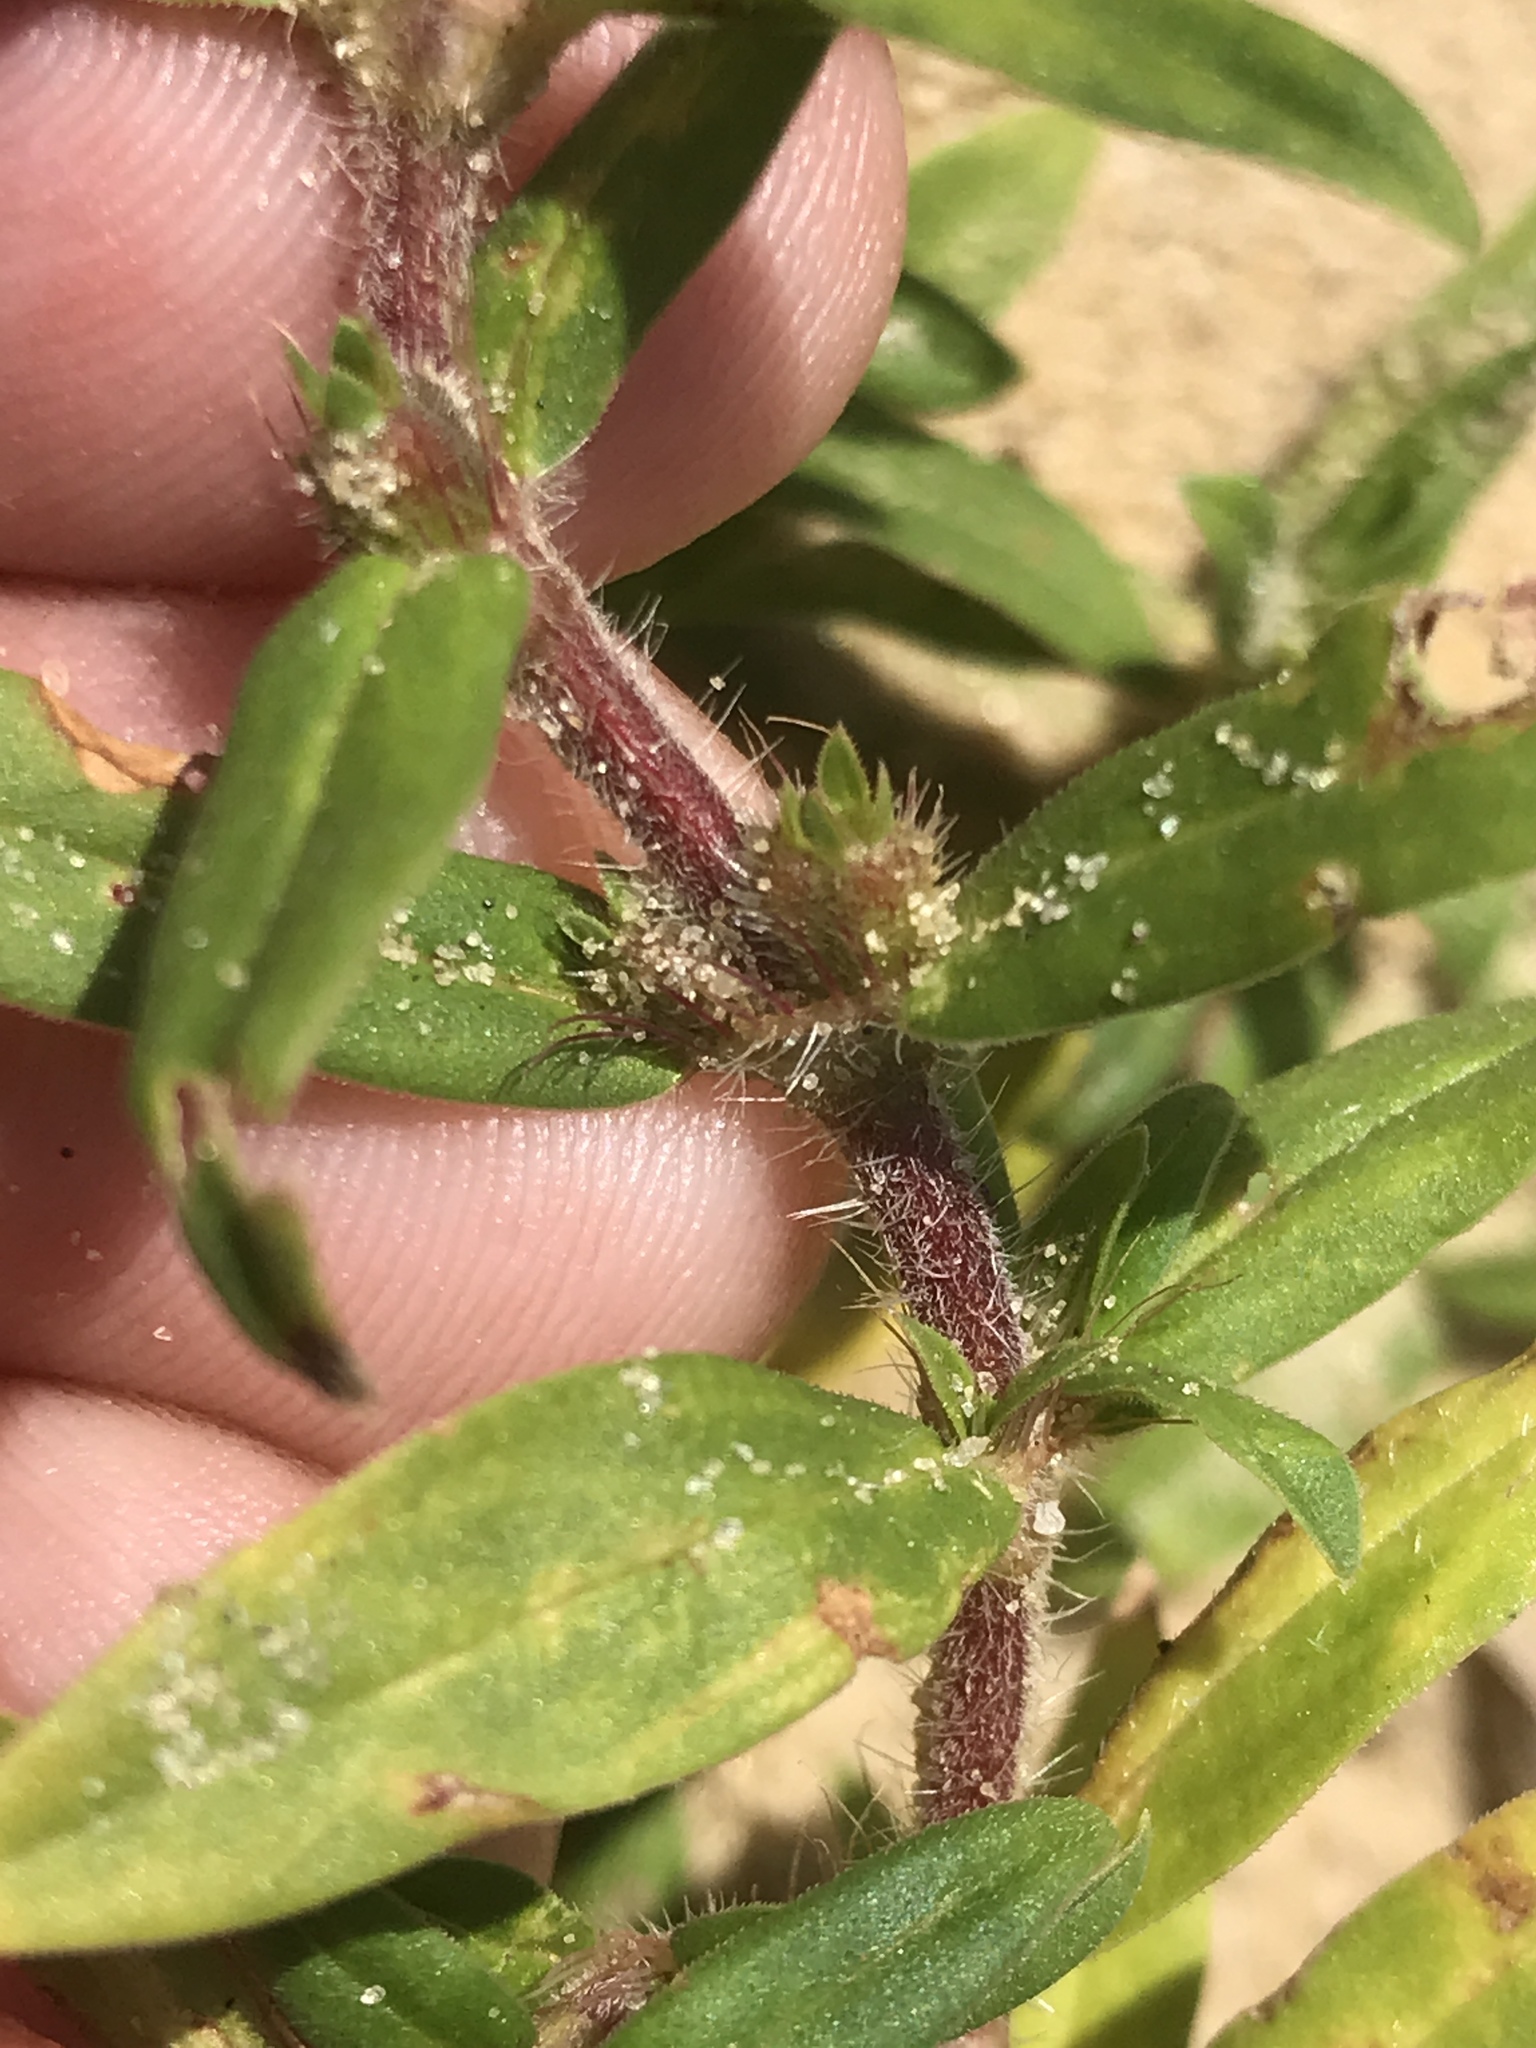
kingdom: Plantae
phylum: Tracheophyta
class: Magnoliopsida
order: Gentianales
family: Rubiaceae
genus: Diodia
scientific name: Diodia virginiana
